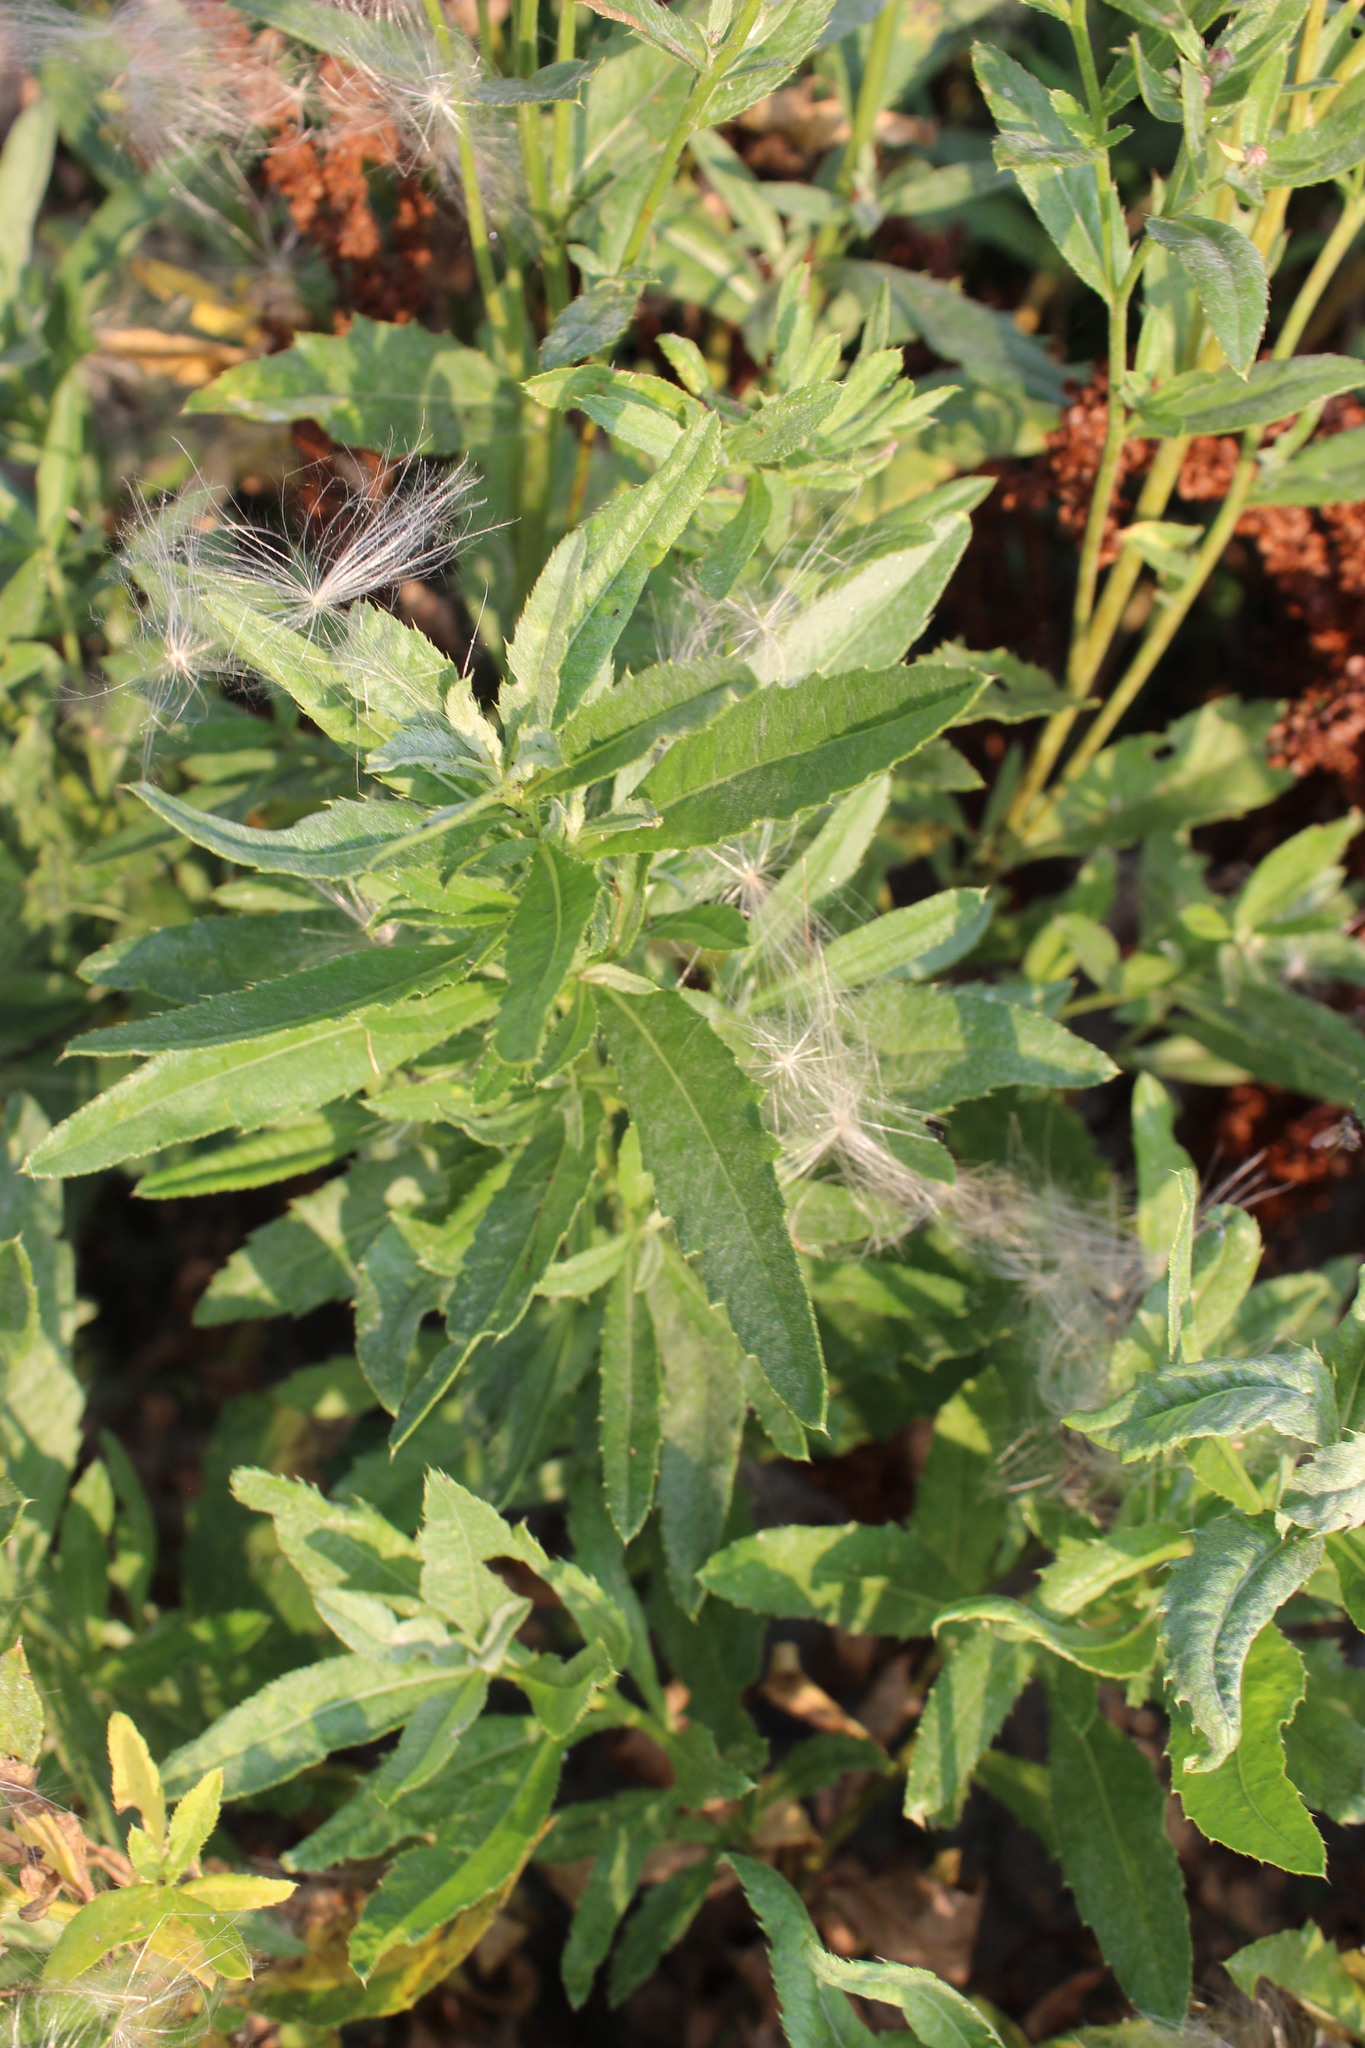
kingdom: Plantae
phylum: Tracheophyta
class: Magnoliopsida
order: Asterales
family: Asteraceae
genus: Cirsium
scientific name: Cirsium arvense
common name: Creeping thistle
